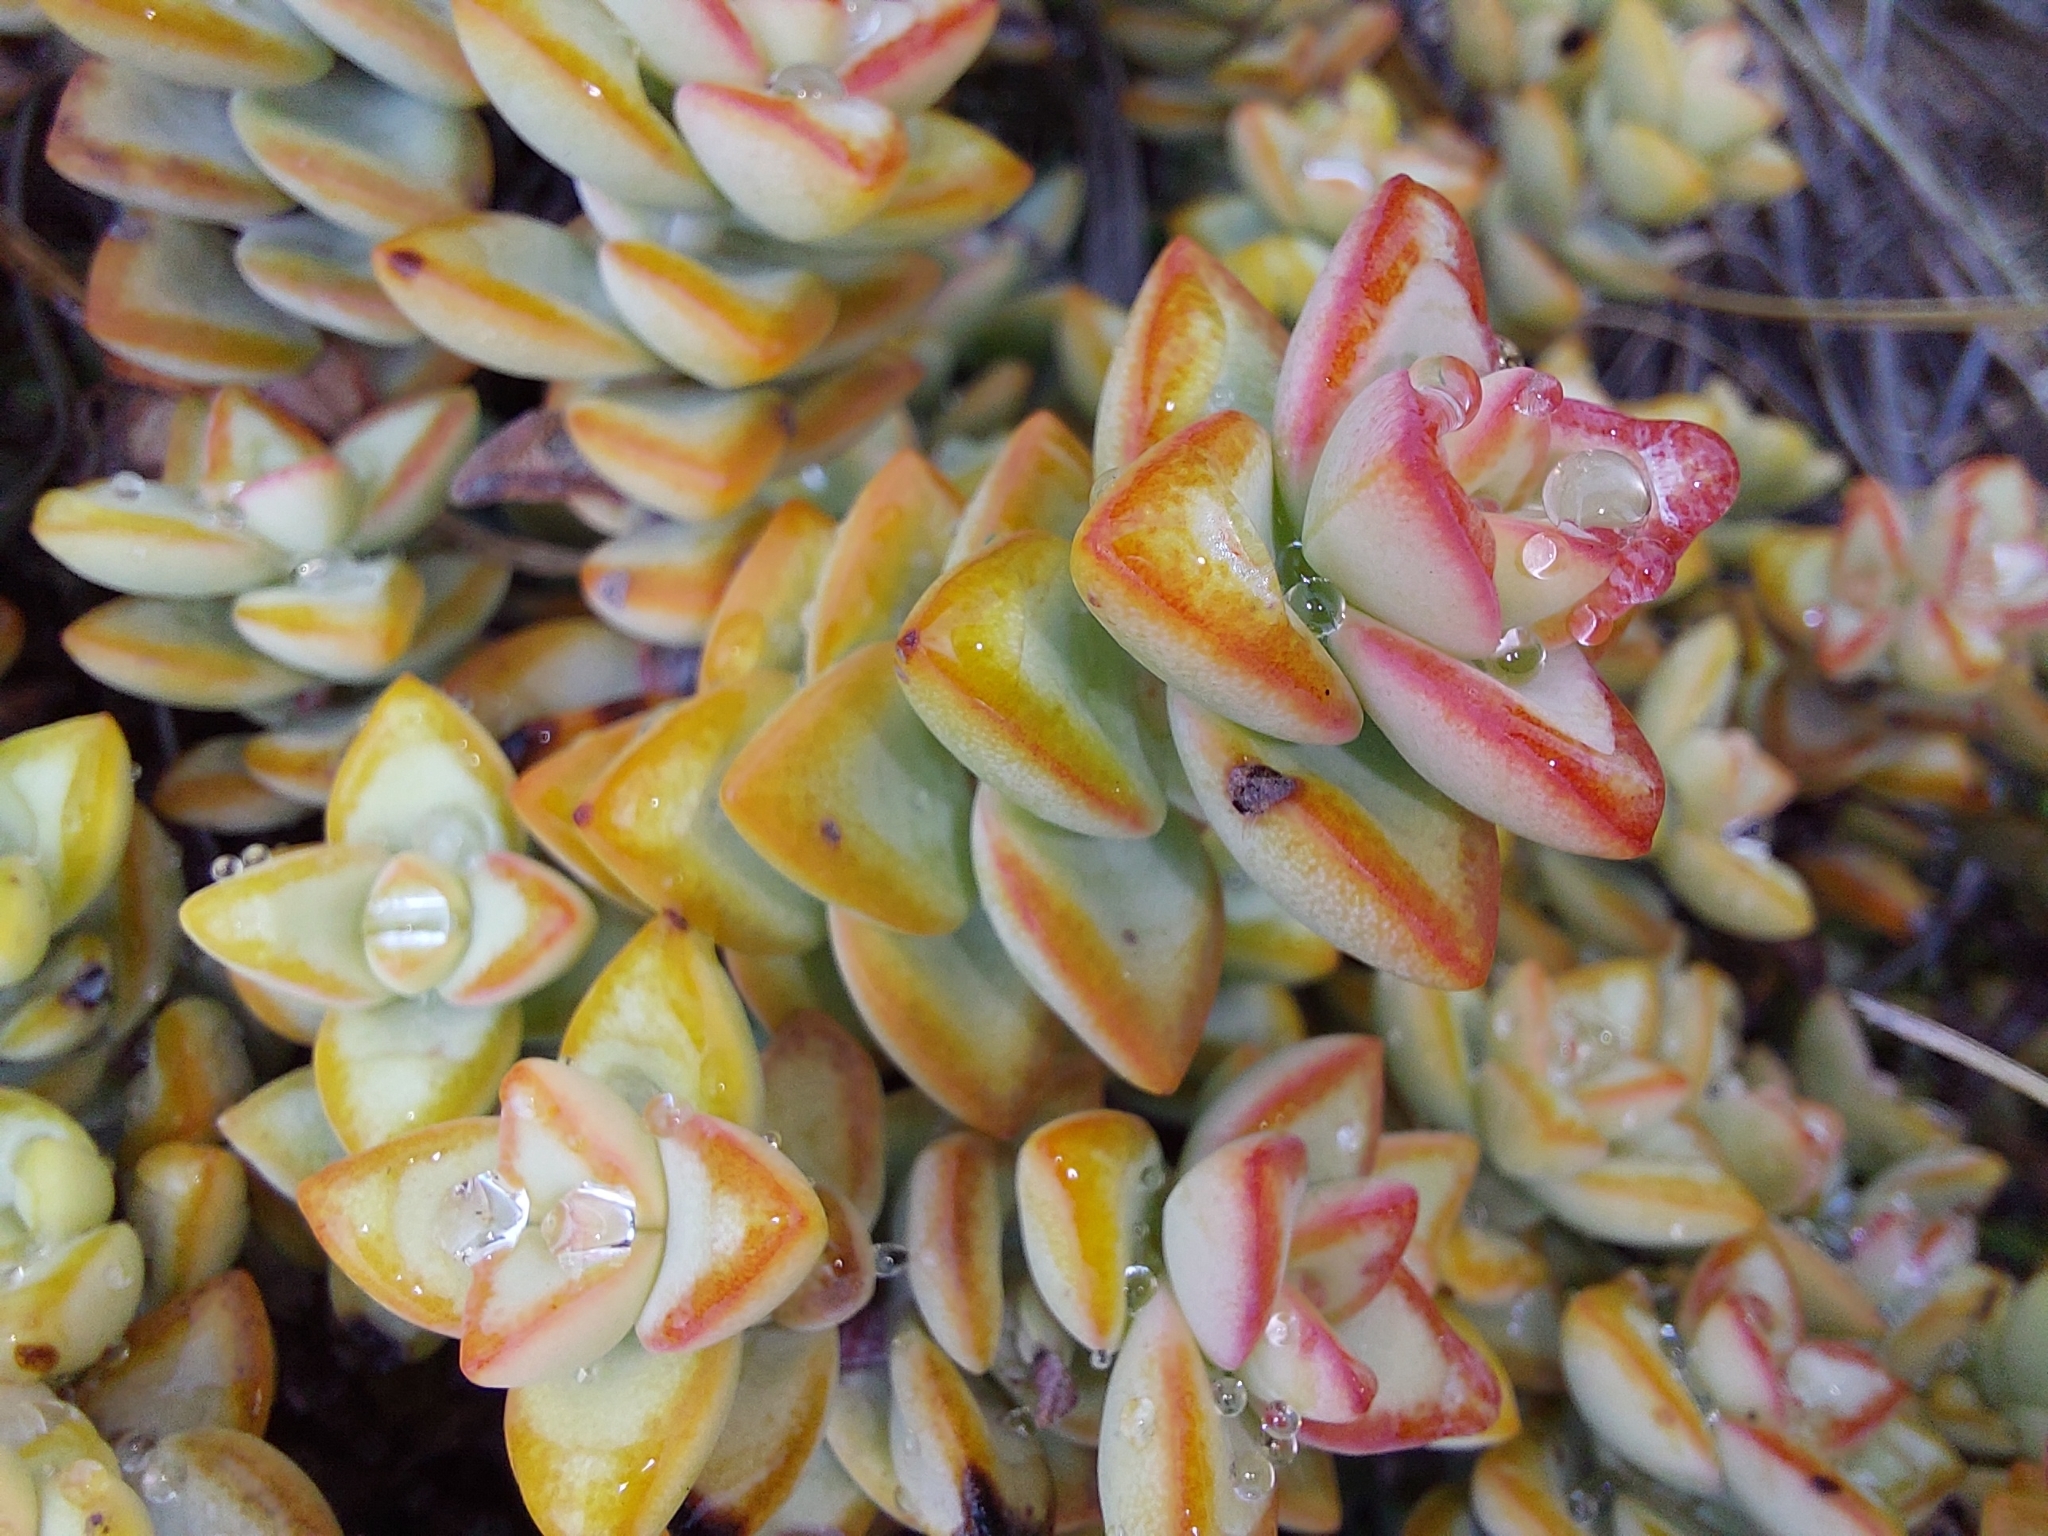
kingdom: Plantae
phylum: Tracheophyta
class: Magnoliopsida
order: Saxifragales
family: Crassulaceae
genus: Crassula
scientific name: Crassula rupestris
